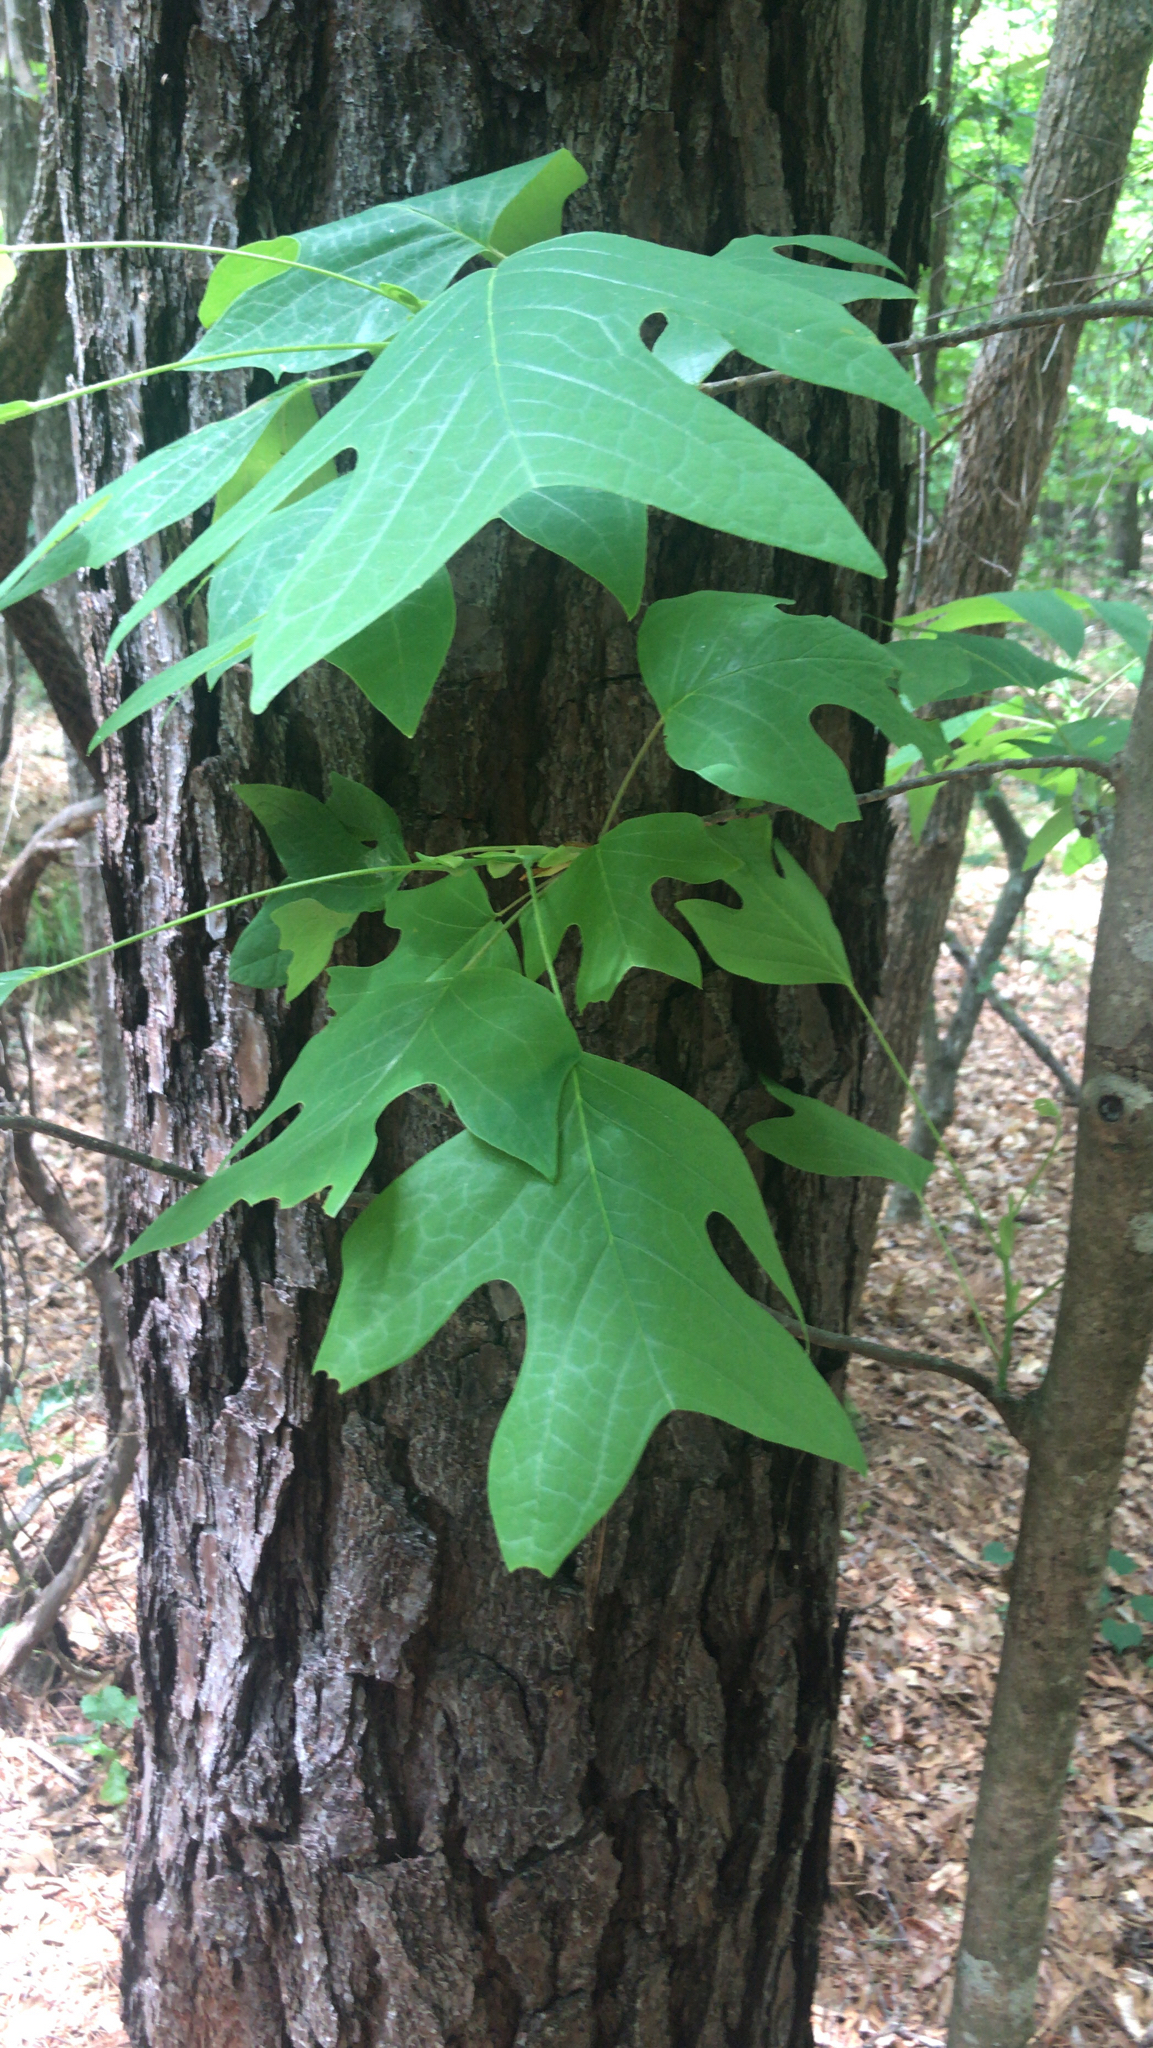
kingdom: Plantae
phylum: Tracheophyta
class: Magnoliopsida
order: Magnoliales
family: Magnoliaceae
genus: Liriodendron
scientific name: Liriodendron tulipifera
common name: Tulip tree
